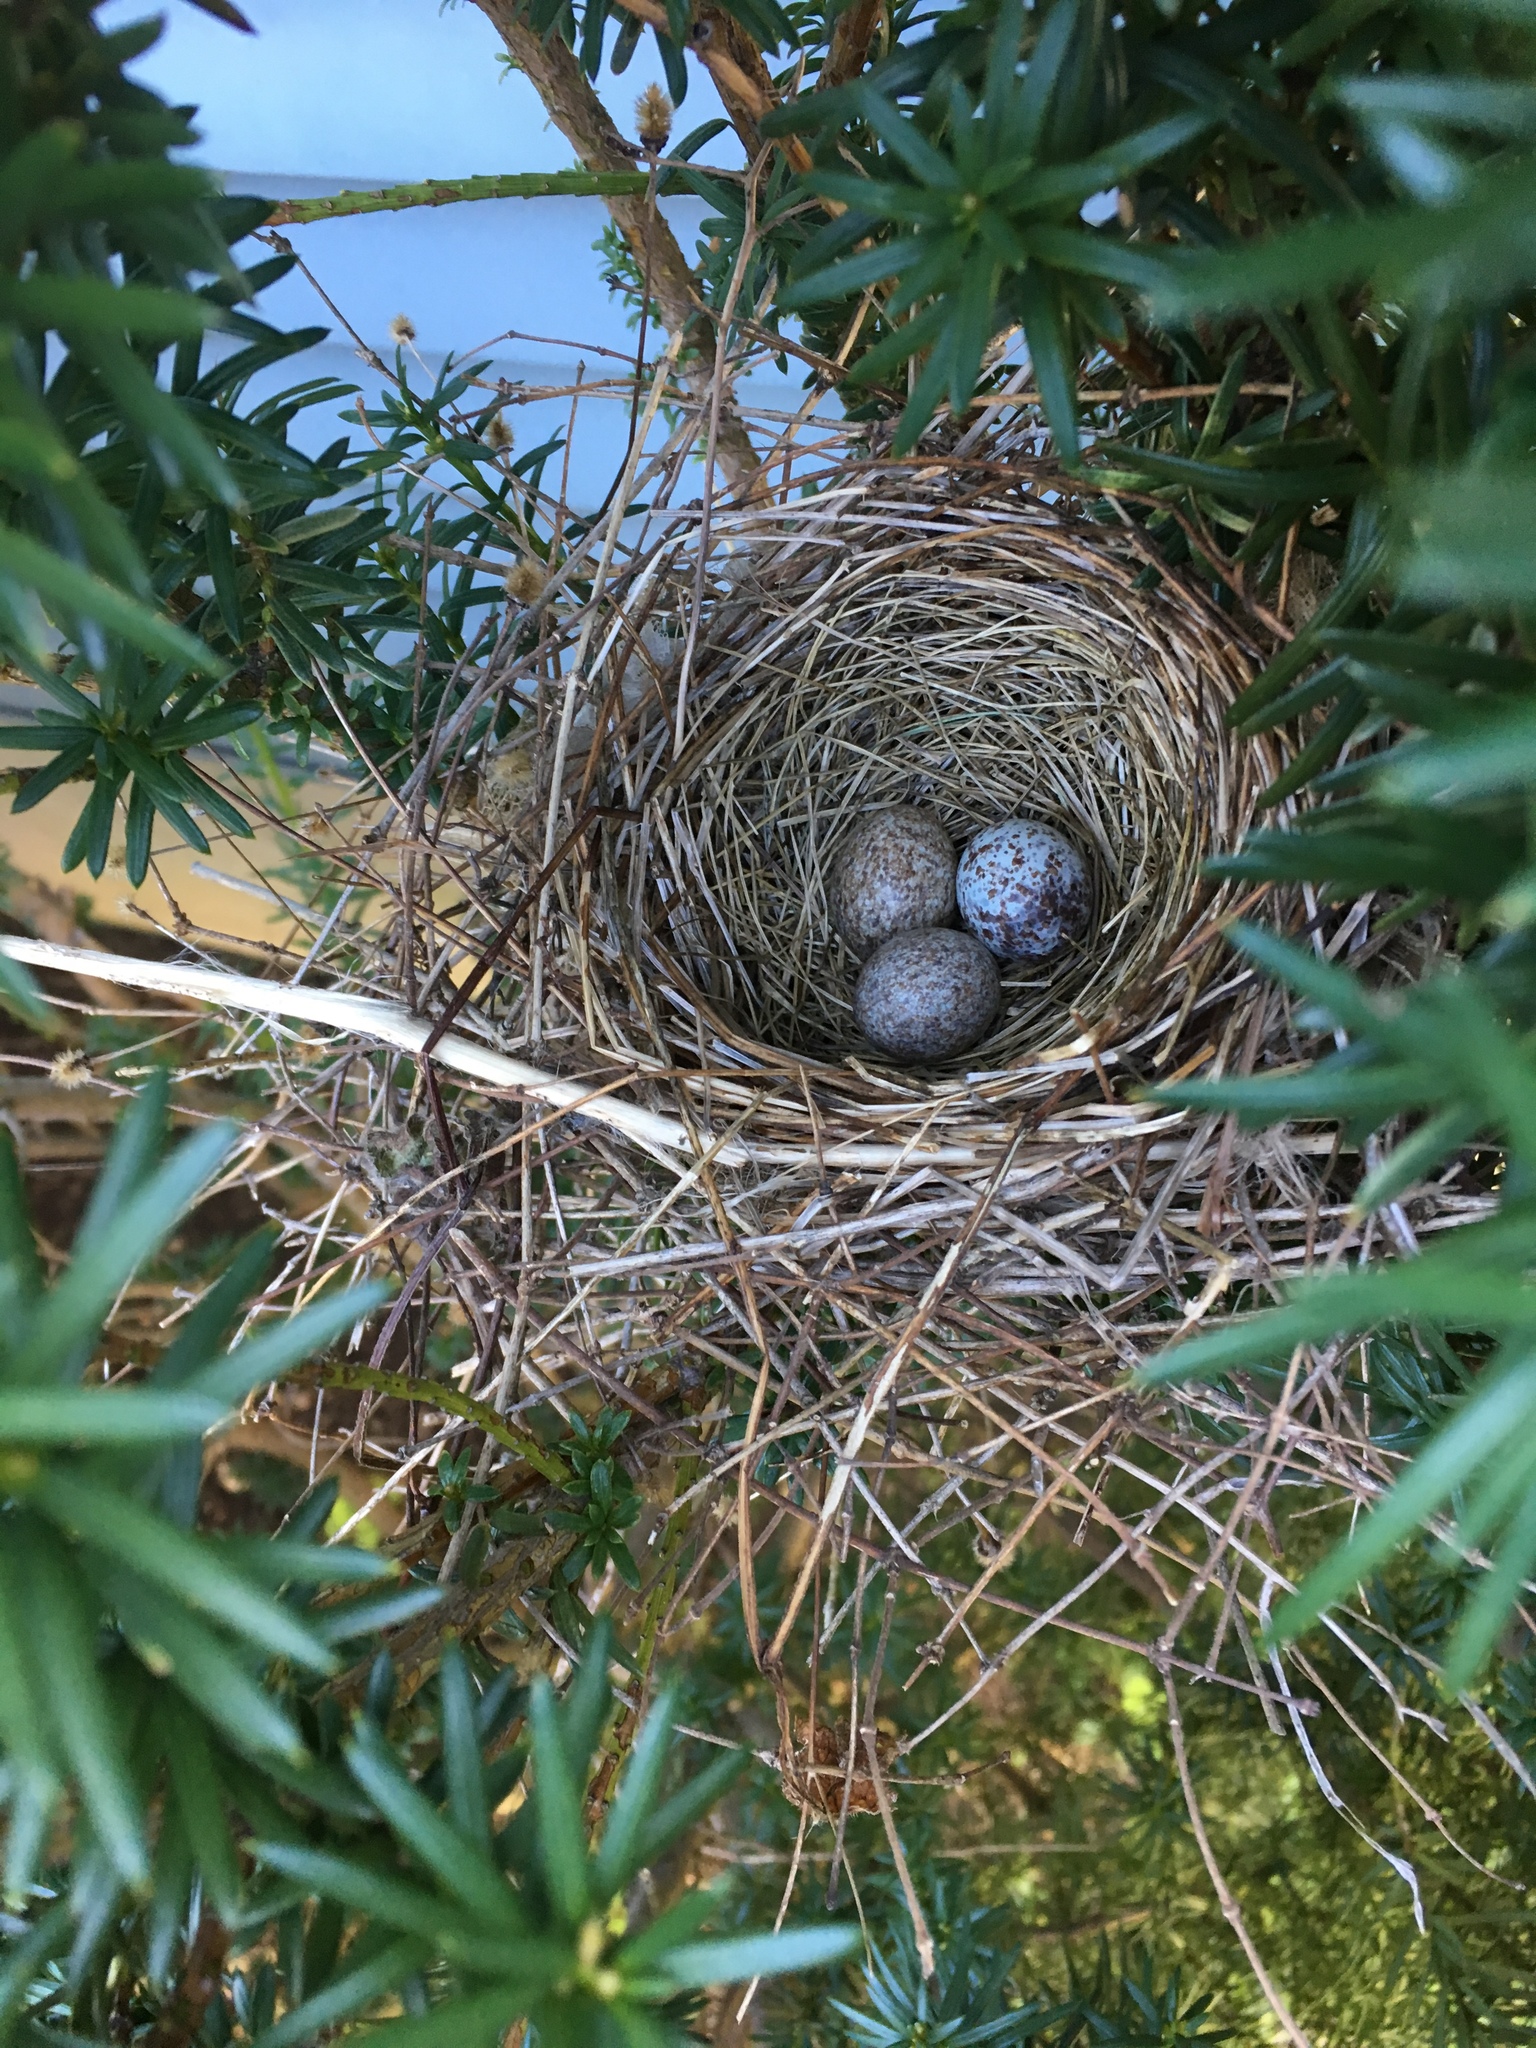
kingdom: Animalia
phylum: Chordata
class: Aves
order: Passeriformes
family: Cardinalidae
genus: Cardinalis
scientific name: Cardinalis cardinalis
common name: Northern cardinal
